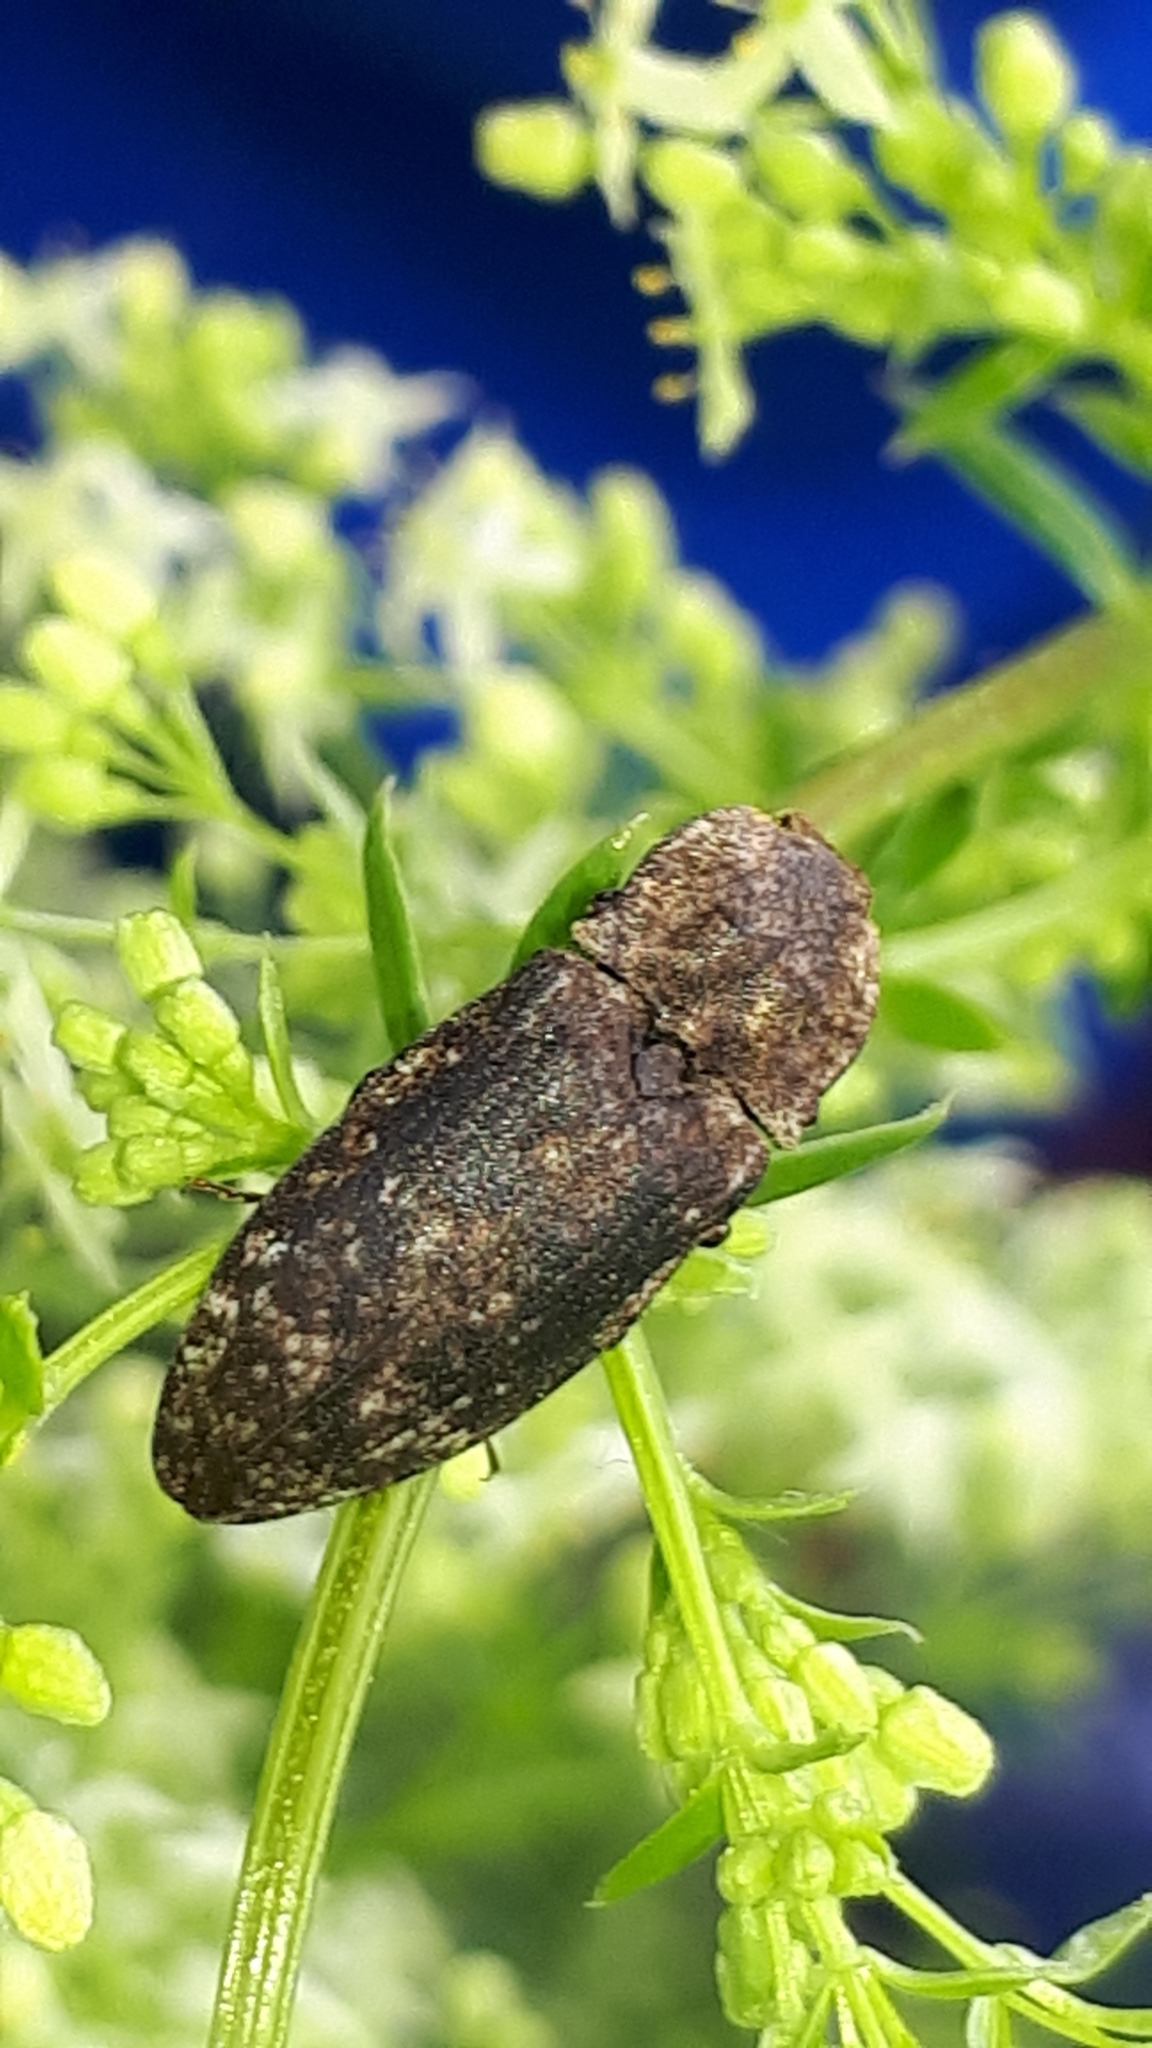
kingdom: Animalia
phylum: Arthropoda
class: Insecta
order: Coleoptera
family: Elateridae
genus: Agrypnus
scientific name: Agrypnus murinus
